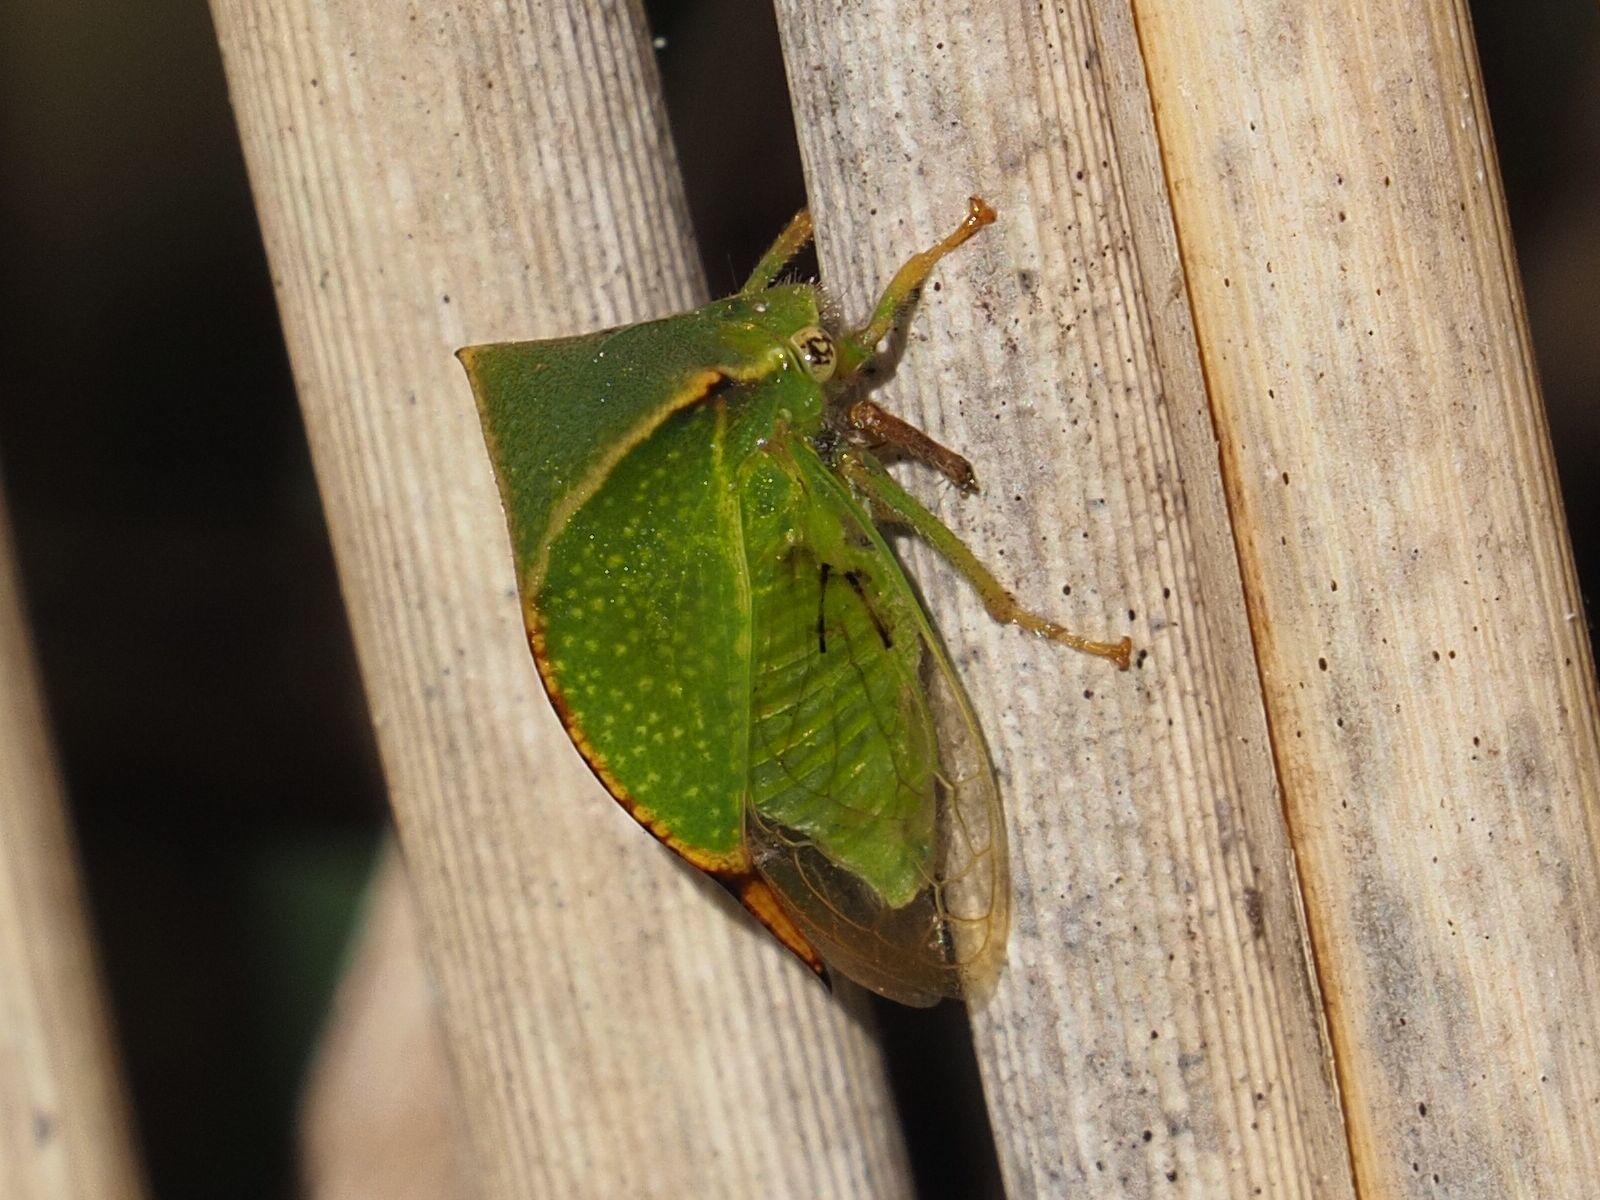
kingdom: Animalia
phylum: Arthropoda
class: Insecta
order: Hemiptera
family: Membracidae
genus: Stictocephala
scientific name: Stictocephala bisonia
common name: American buffalo treehopper
